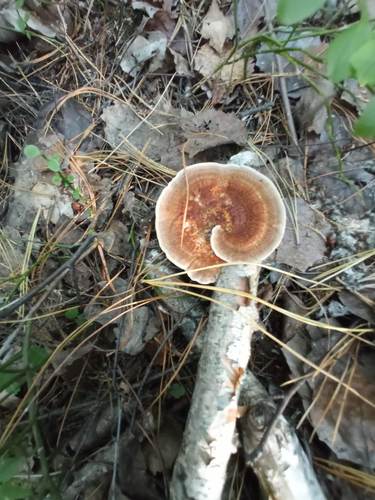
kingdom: Fungi
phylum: Basidiomycota
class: Agaricomycetes
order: Polyporales
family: Polyporaceae
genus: Daedaleopsis
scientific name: Daedaleopsis septentrionalis
